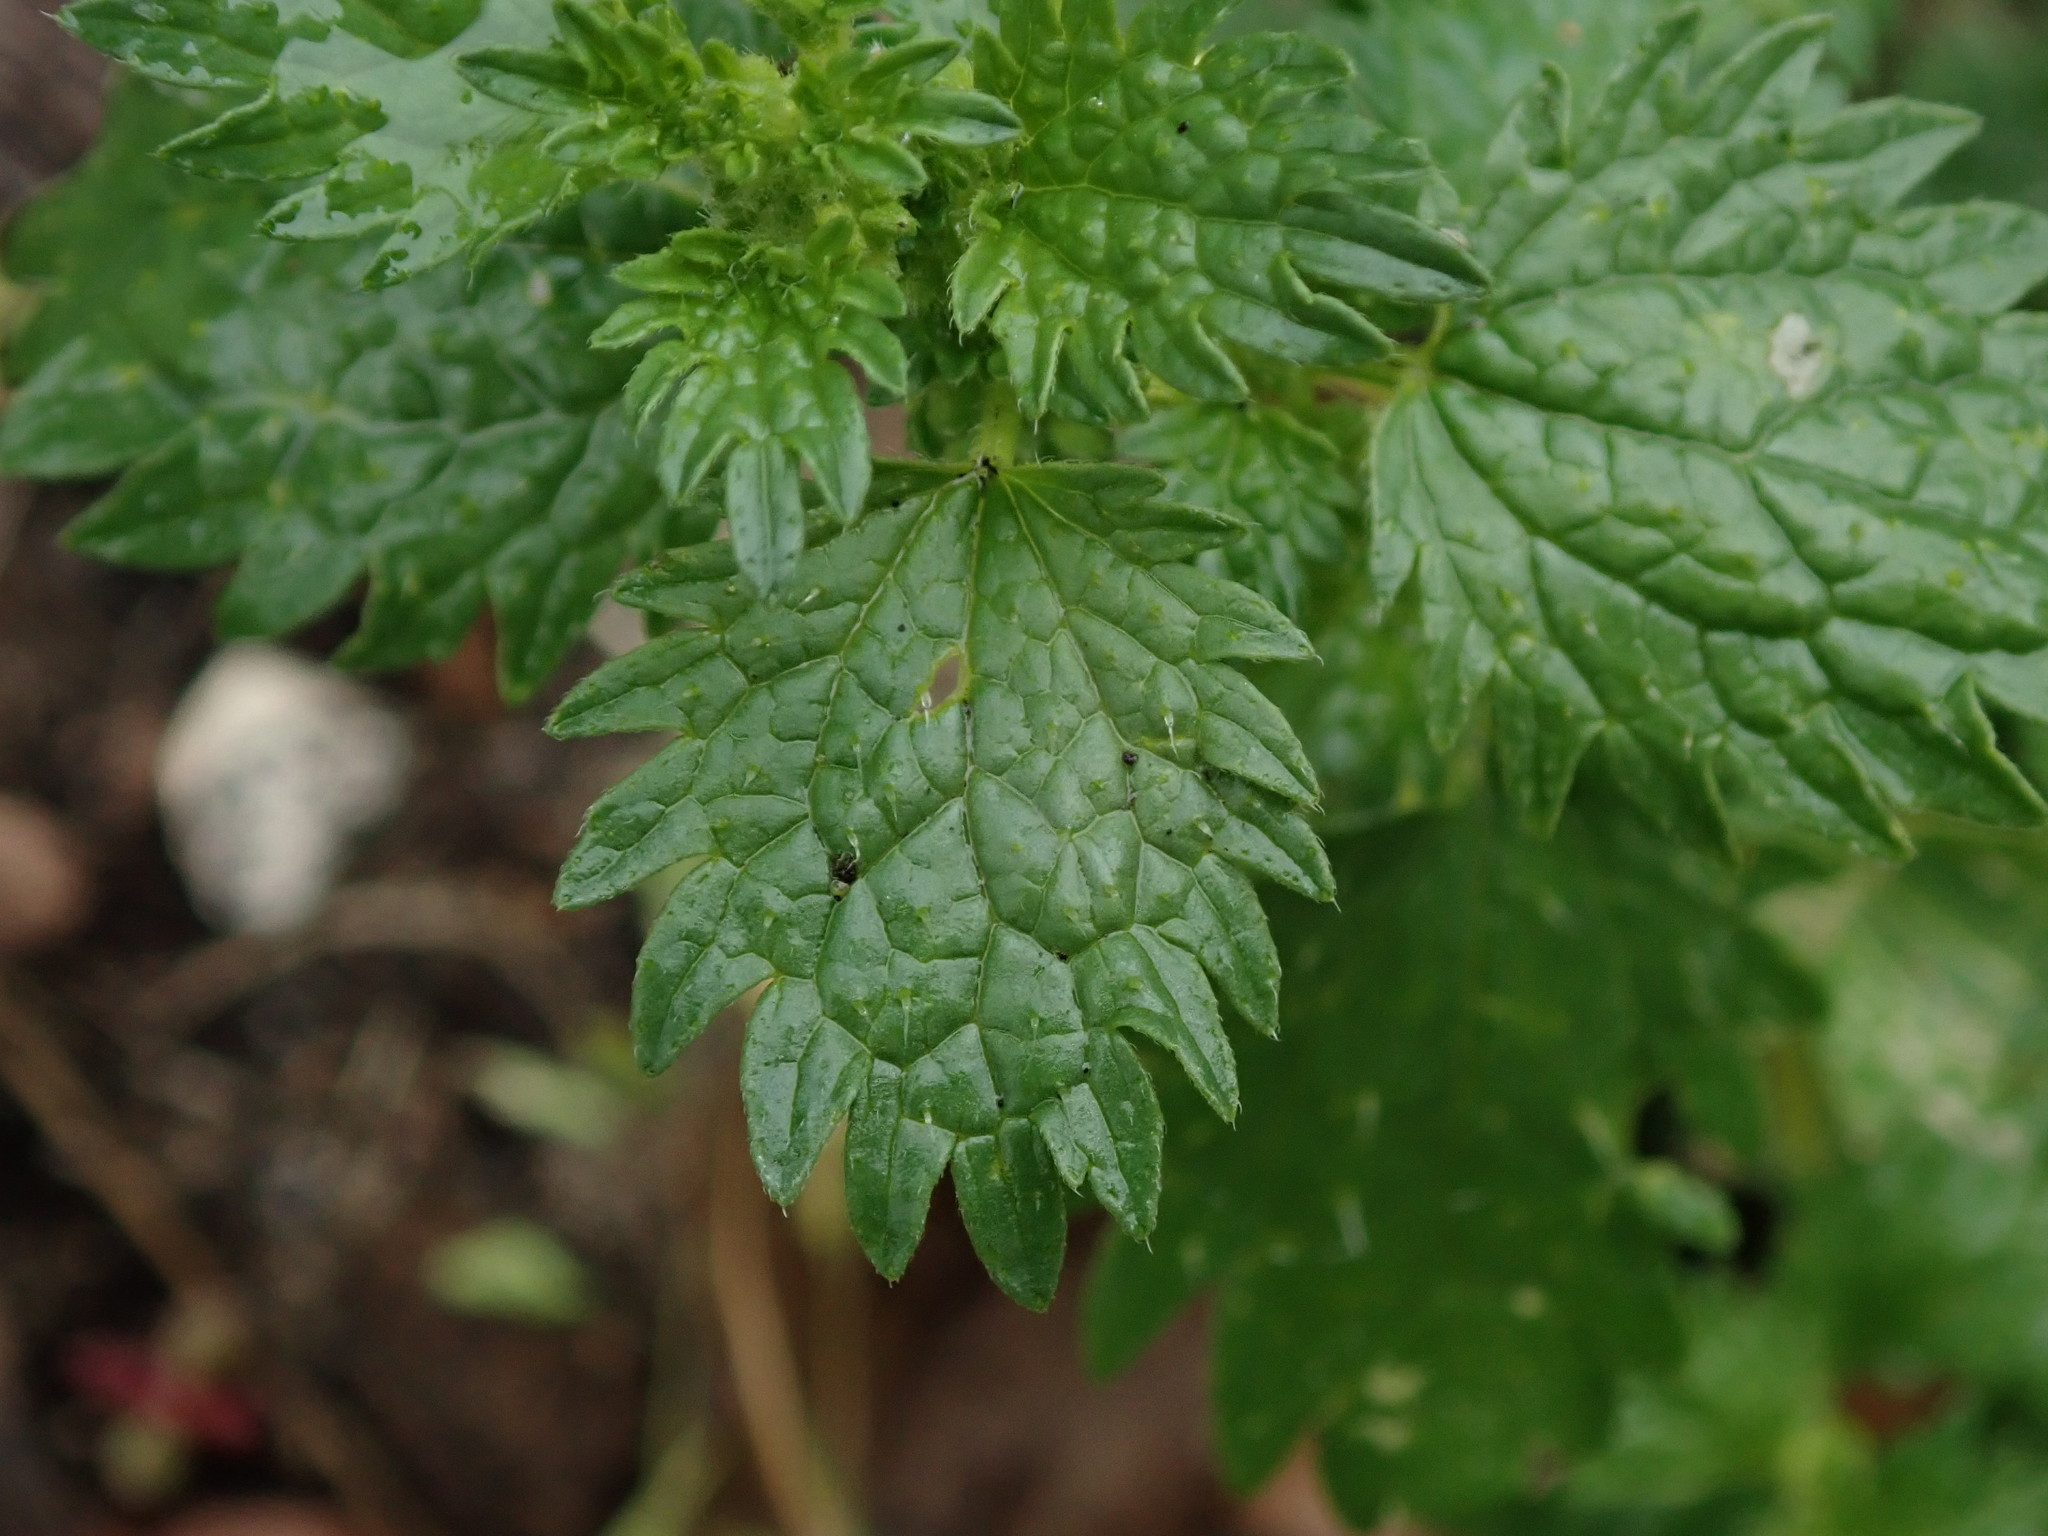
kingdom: Plantae
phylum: Tracheophyta
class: Magnoliopsida
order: Rosales
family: Urticaceae
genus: Urtica
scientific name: Urtica urens
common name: Dwarf nettle
